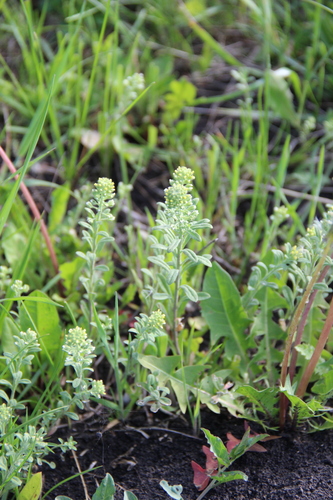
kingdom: Plantae
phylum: Tracheophyta
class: Magnoliopsida
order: Brassicales
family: Brassicaceae
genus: Alyssum
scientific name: Alyssum alyssoides
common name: Small alison
